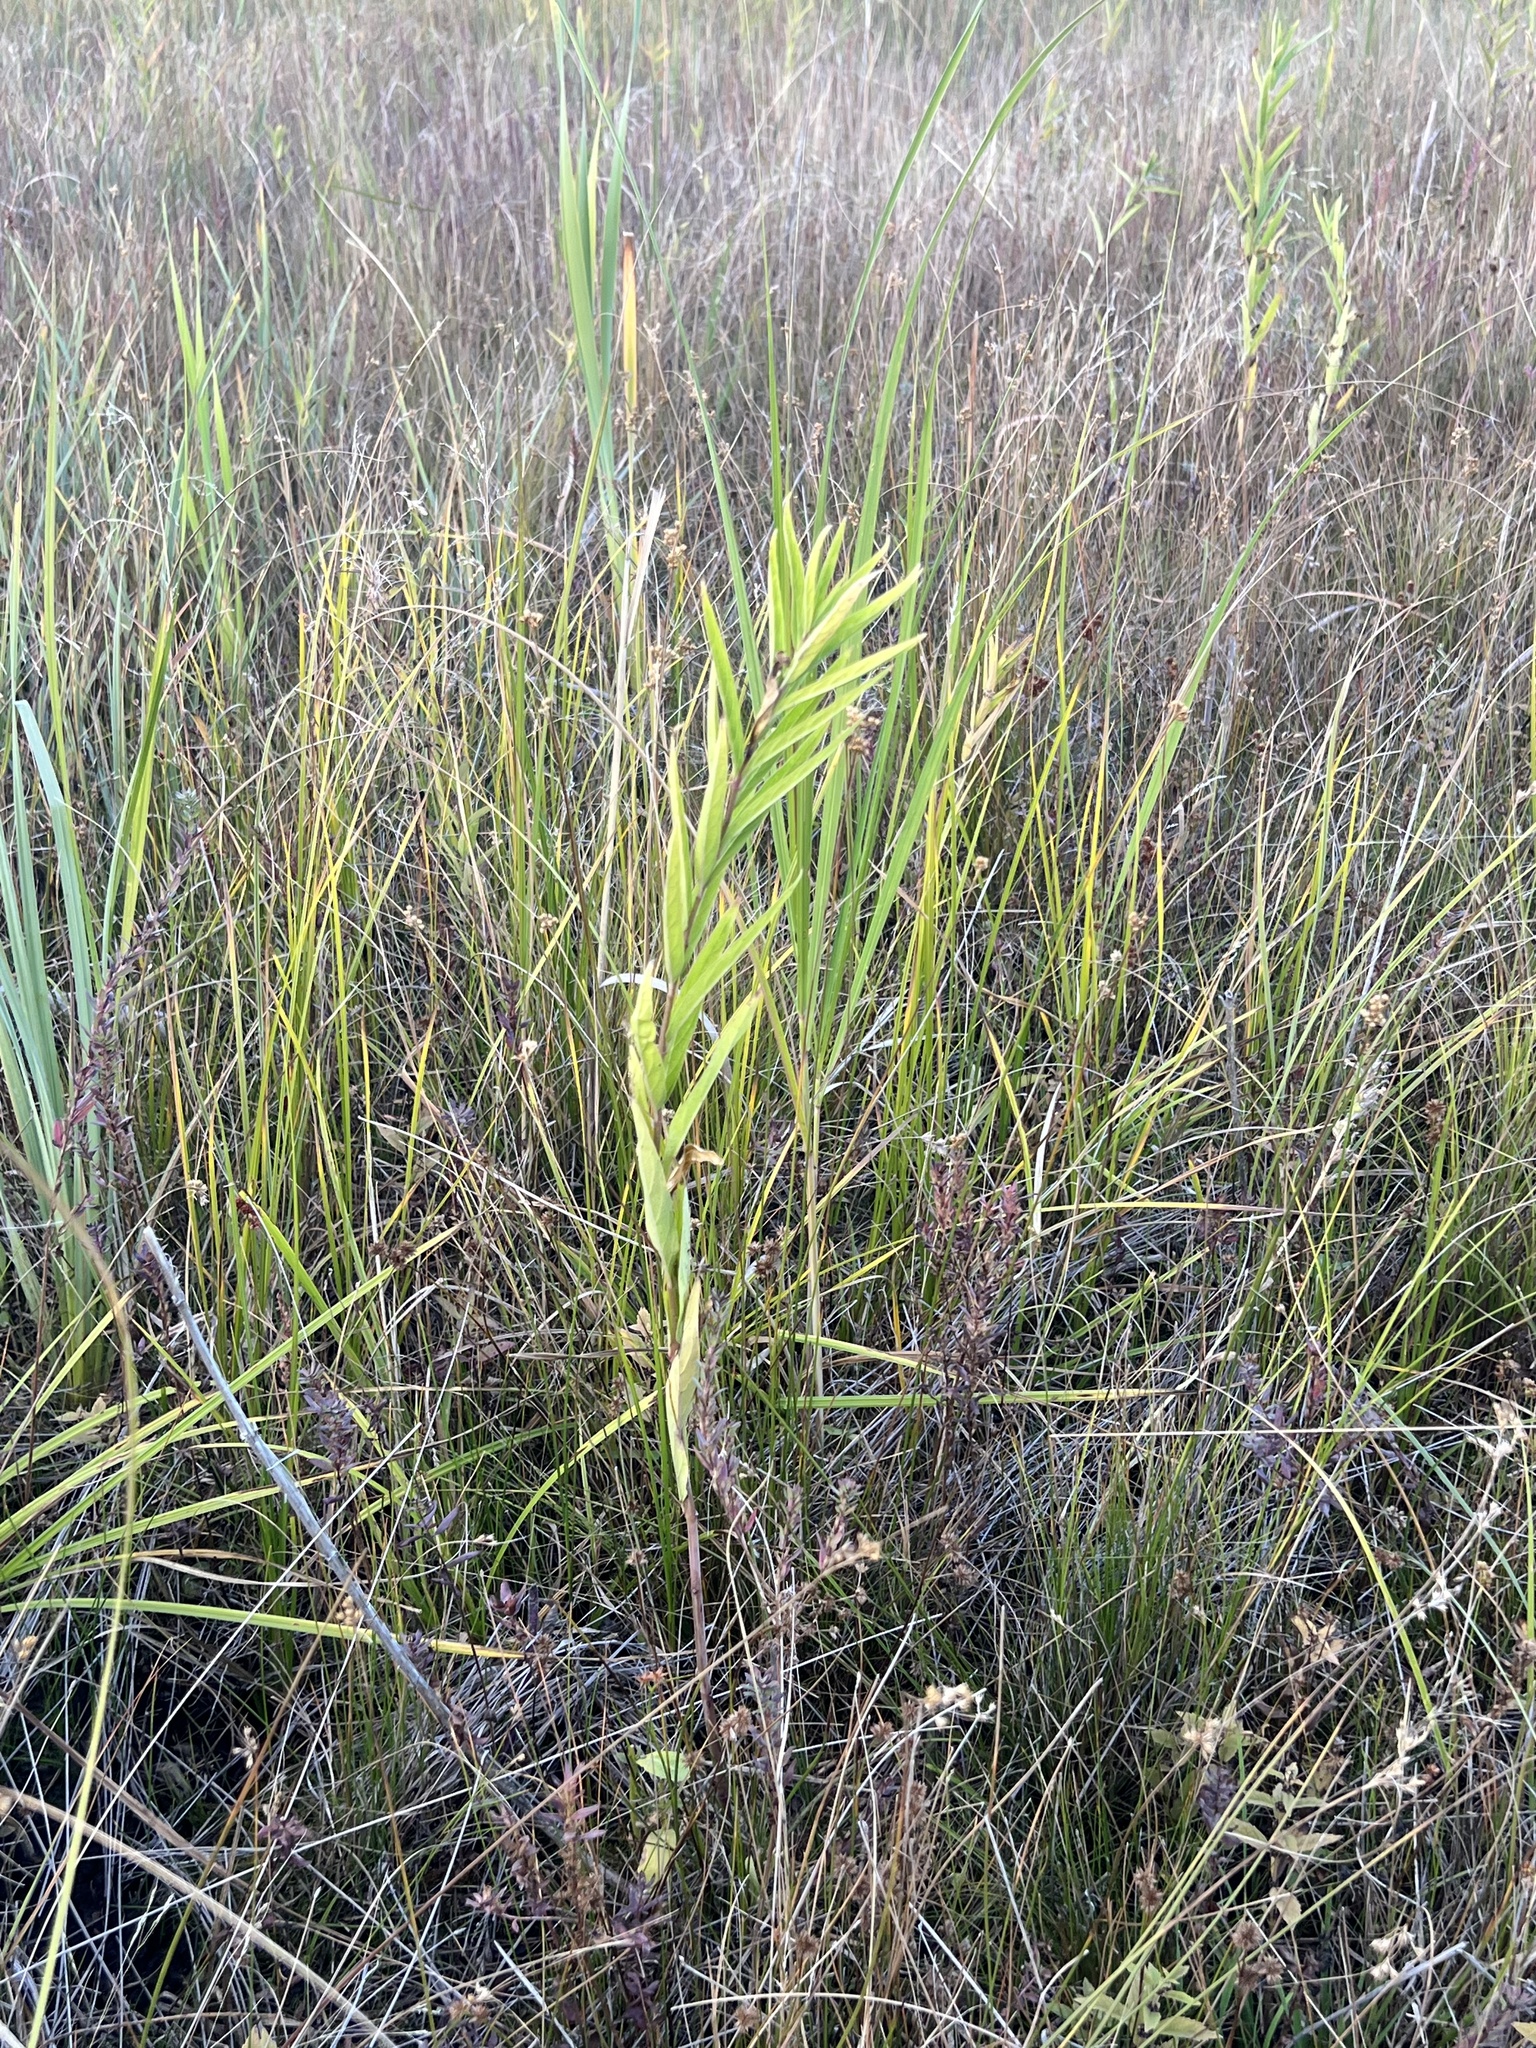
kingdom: Plantae
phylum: Tracheophyta
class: Magnoliopsida
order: Gentianales
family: Apocynaceae
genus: Asclepias
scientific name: Asclepias incarnata
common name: Swamp milkweed
